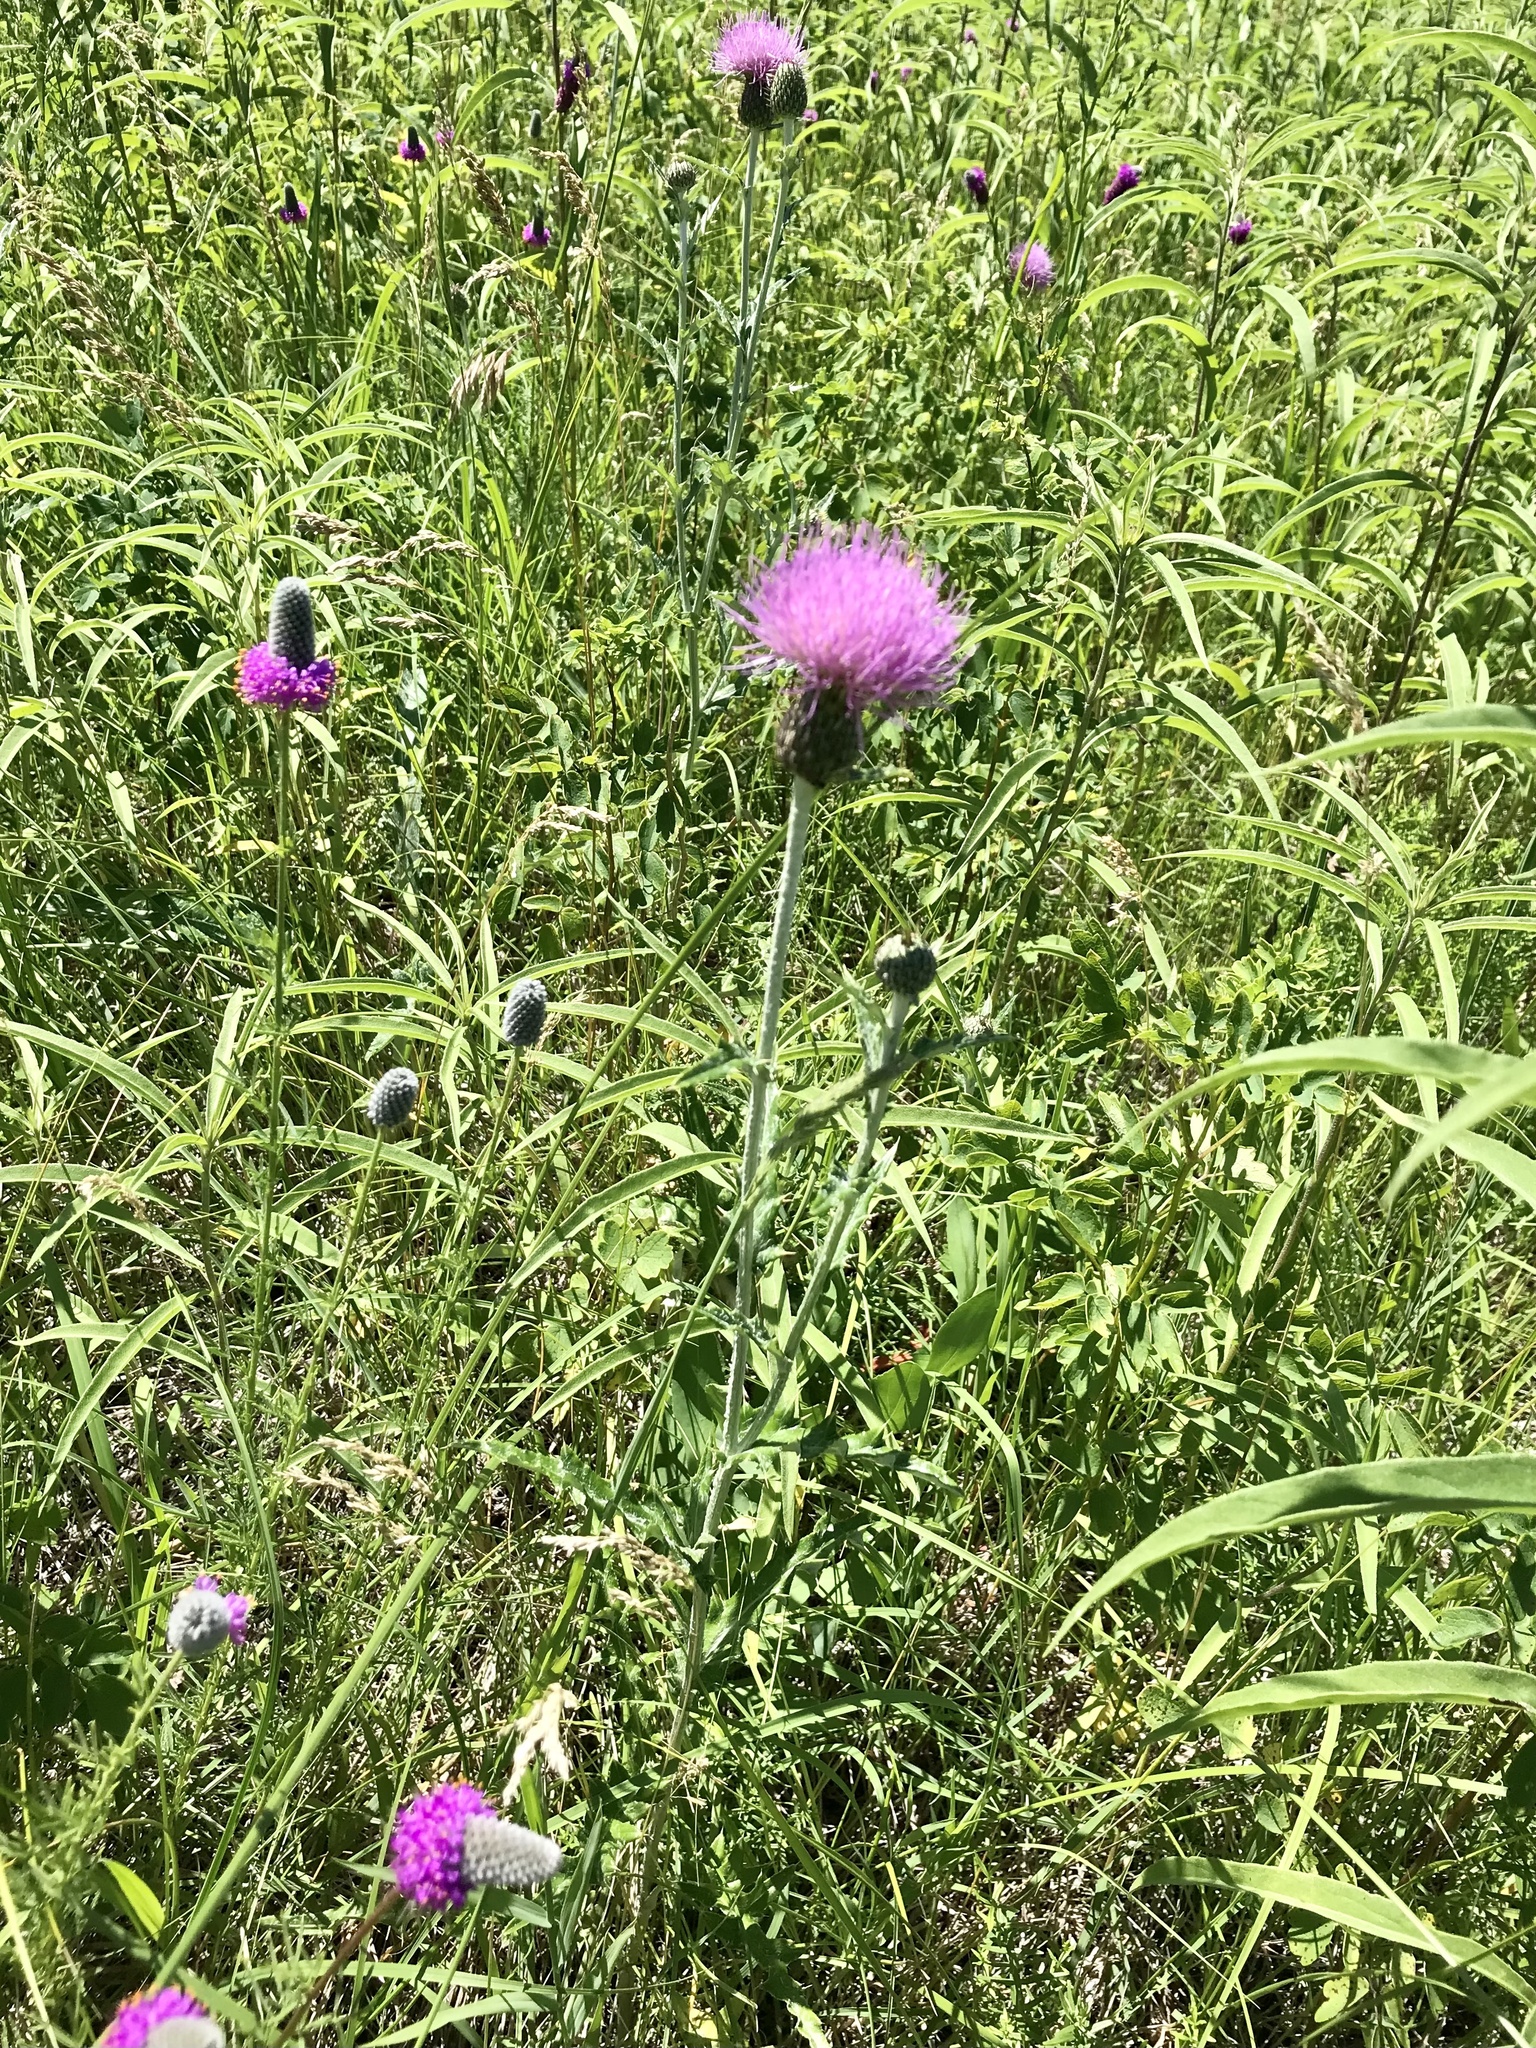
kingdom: Plantae
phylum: Tracheophyta
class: Magnoliopsida
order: Asterales
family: Asteraceae
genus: Cirsium
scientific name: Cirsium flodmanii
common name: Flodman's thistle
